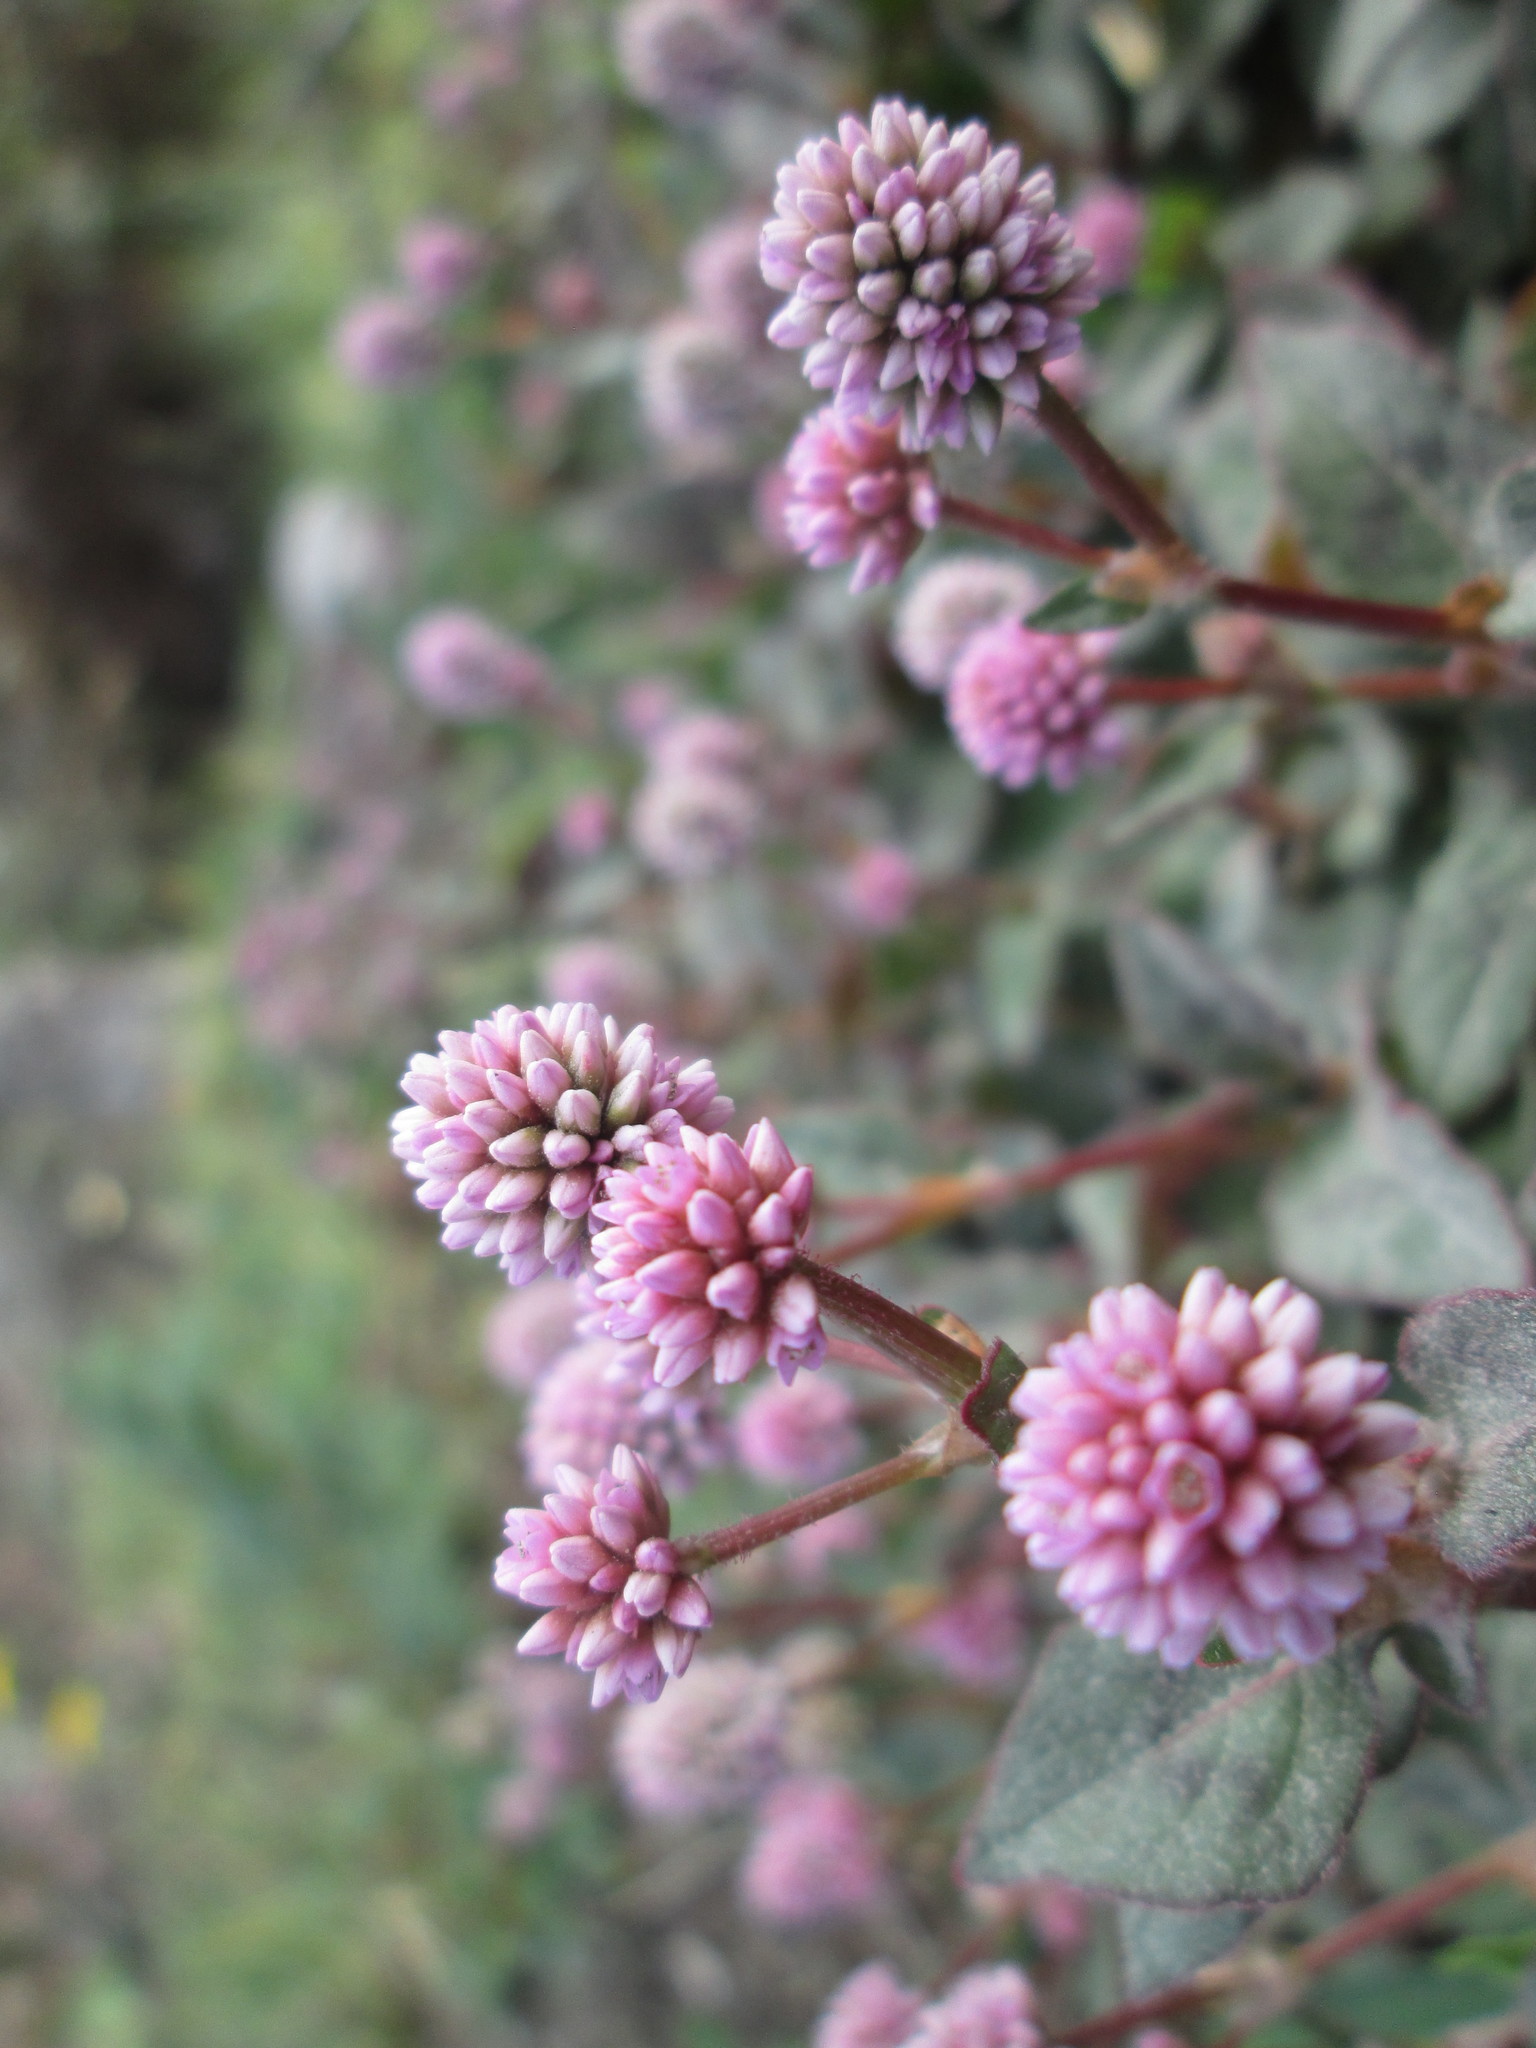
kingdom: Plantae
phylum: Tracheophyta
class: Magnoliopsida
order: Caryophyllales
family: Polygonaceae
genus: Persicaria
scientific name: Persicaria capitata
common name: Pinkhead smartweed
